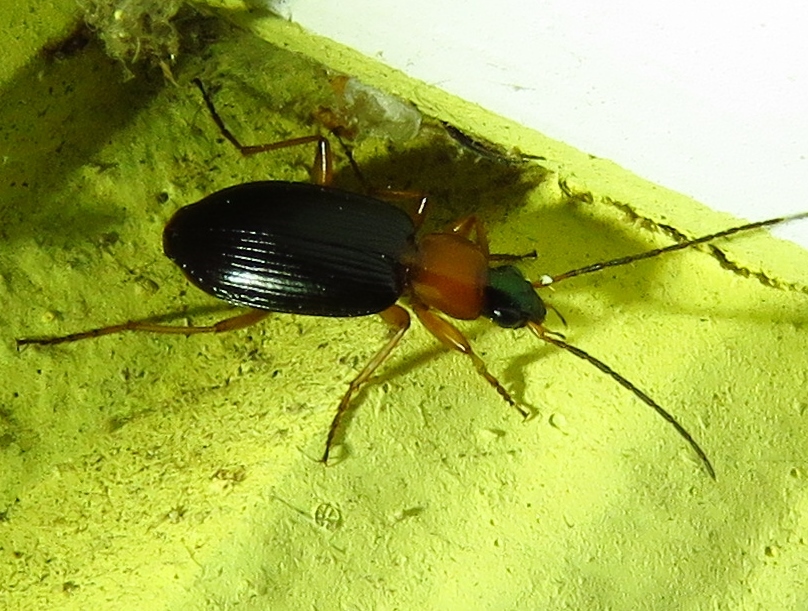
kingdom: Animalia
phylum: Arthropoda
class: Insecta
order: Coleoptera
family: Carabidae
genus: Agonum
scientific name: Agonum decorum
